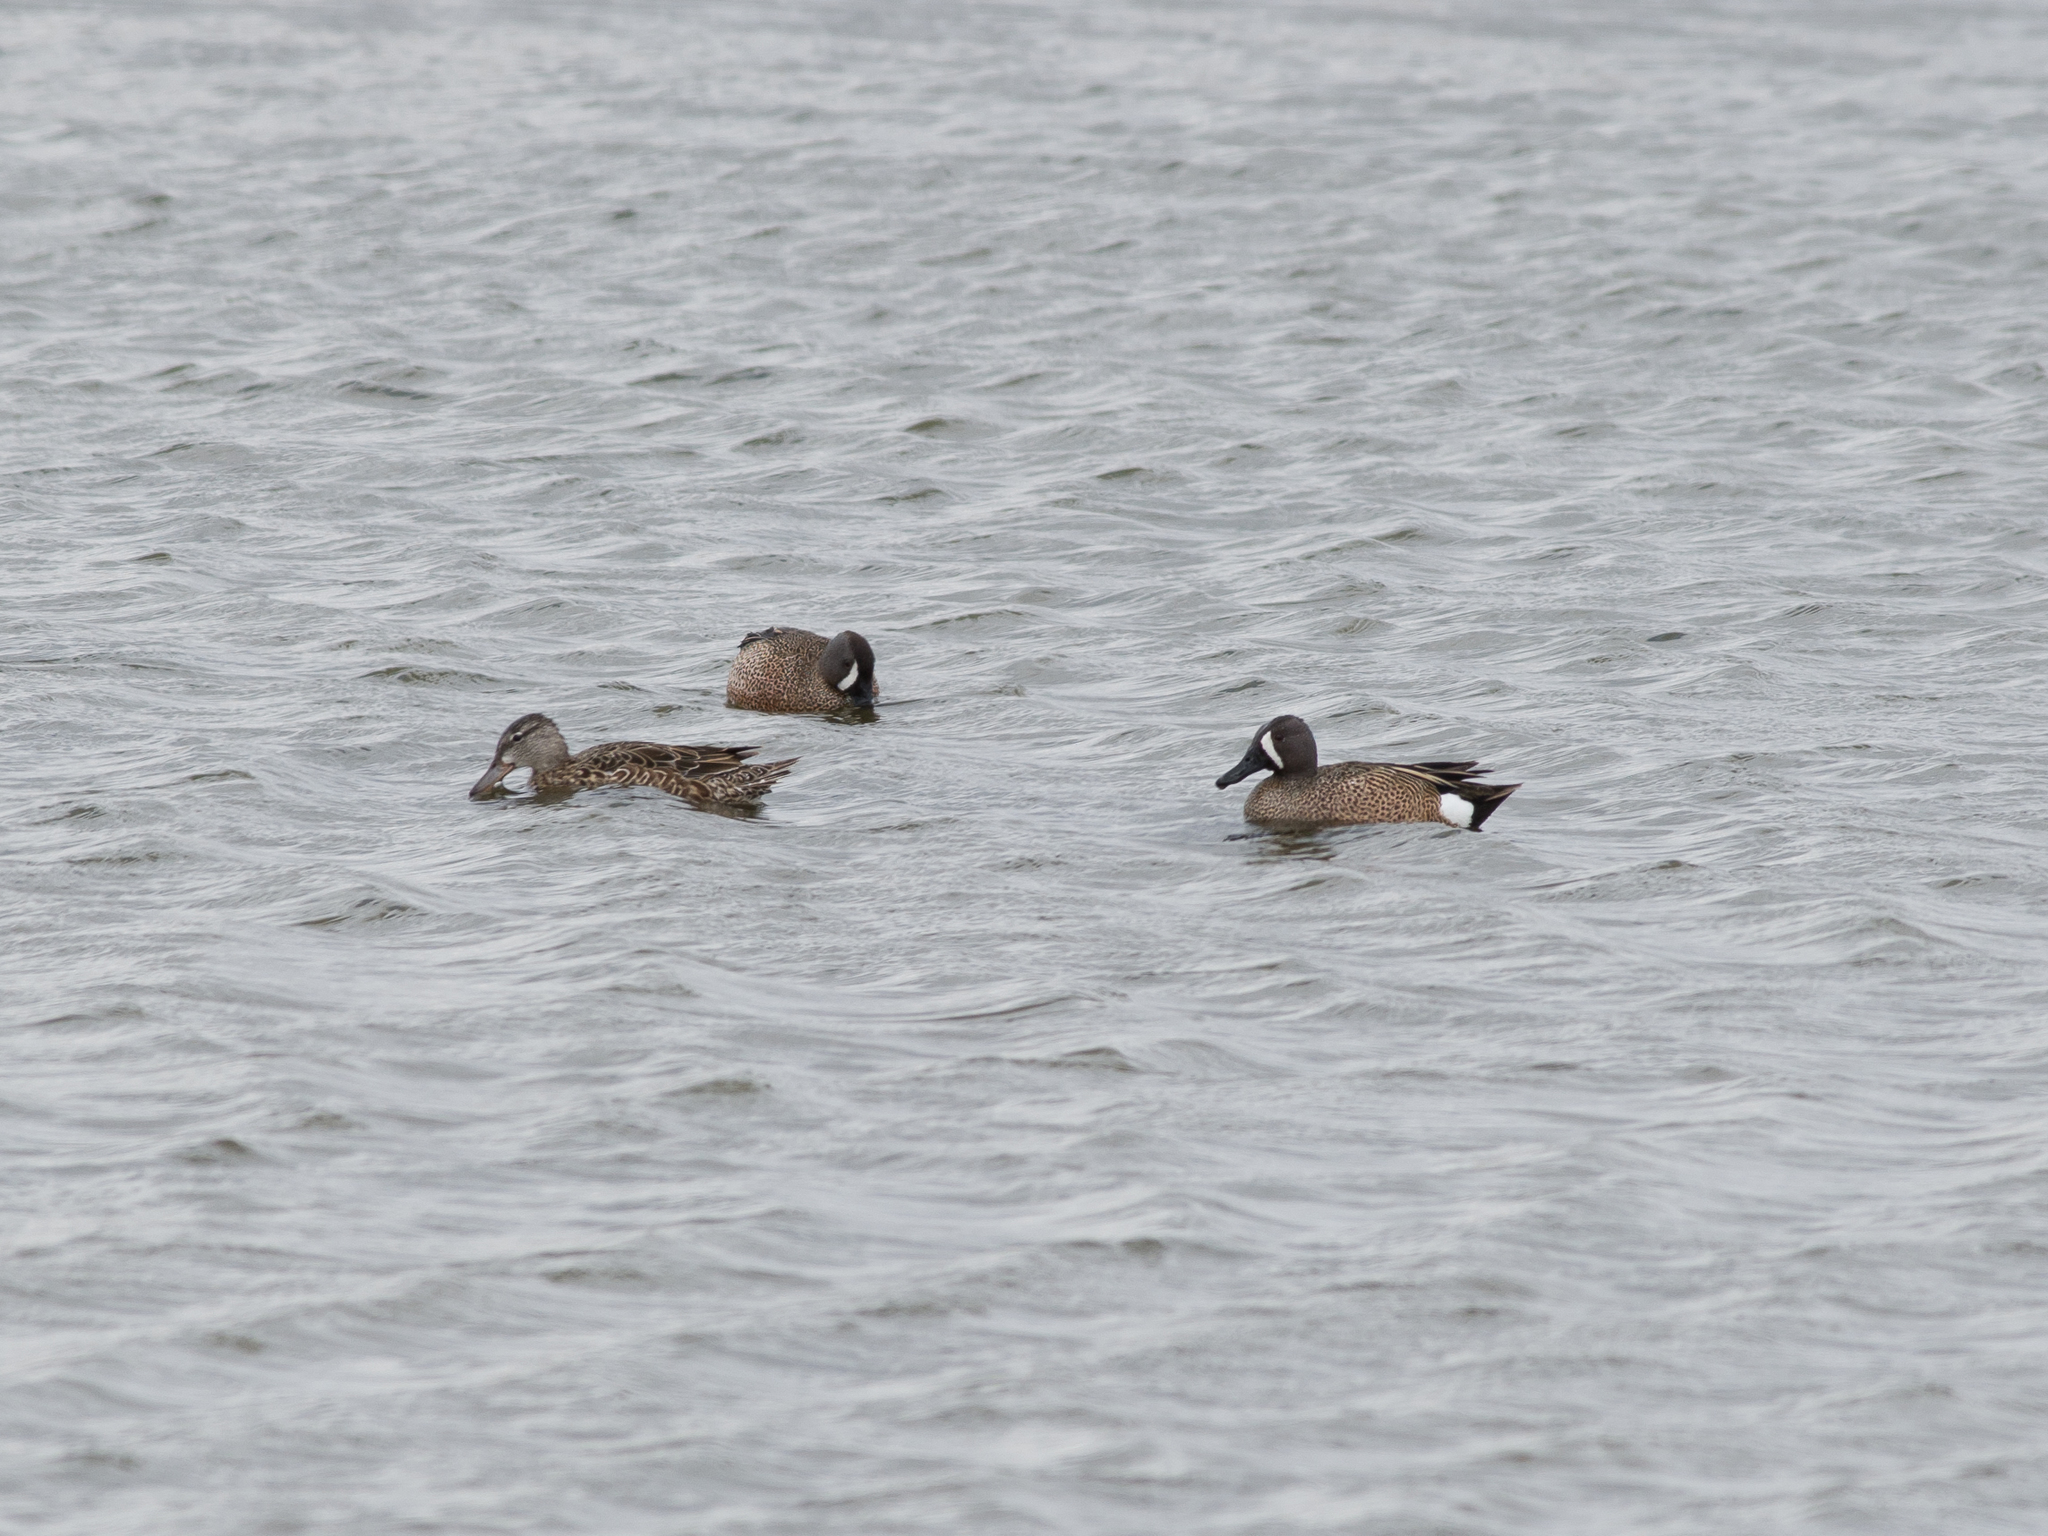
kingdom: Animalia
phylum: Chordata
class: Aves
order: Anseriformes
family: Anatidae
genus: Spatula
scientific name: Spatula discors
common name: Blue-winged teal
